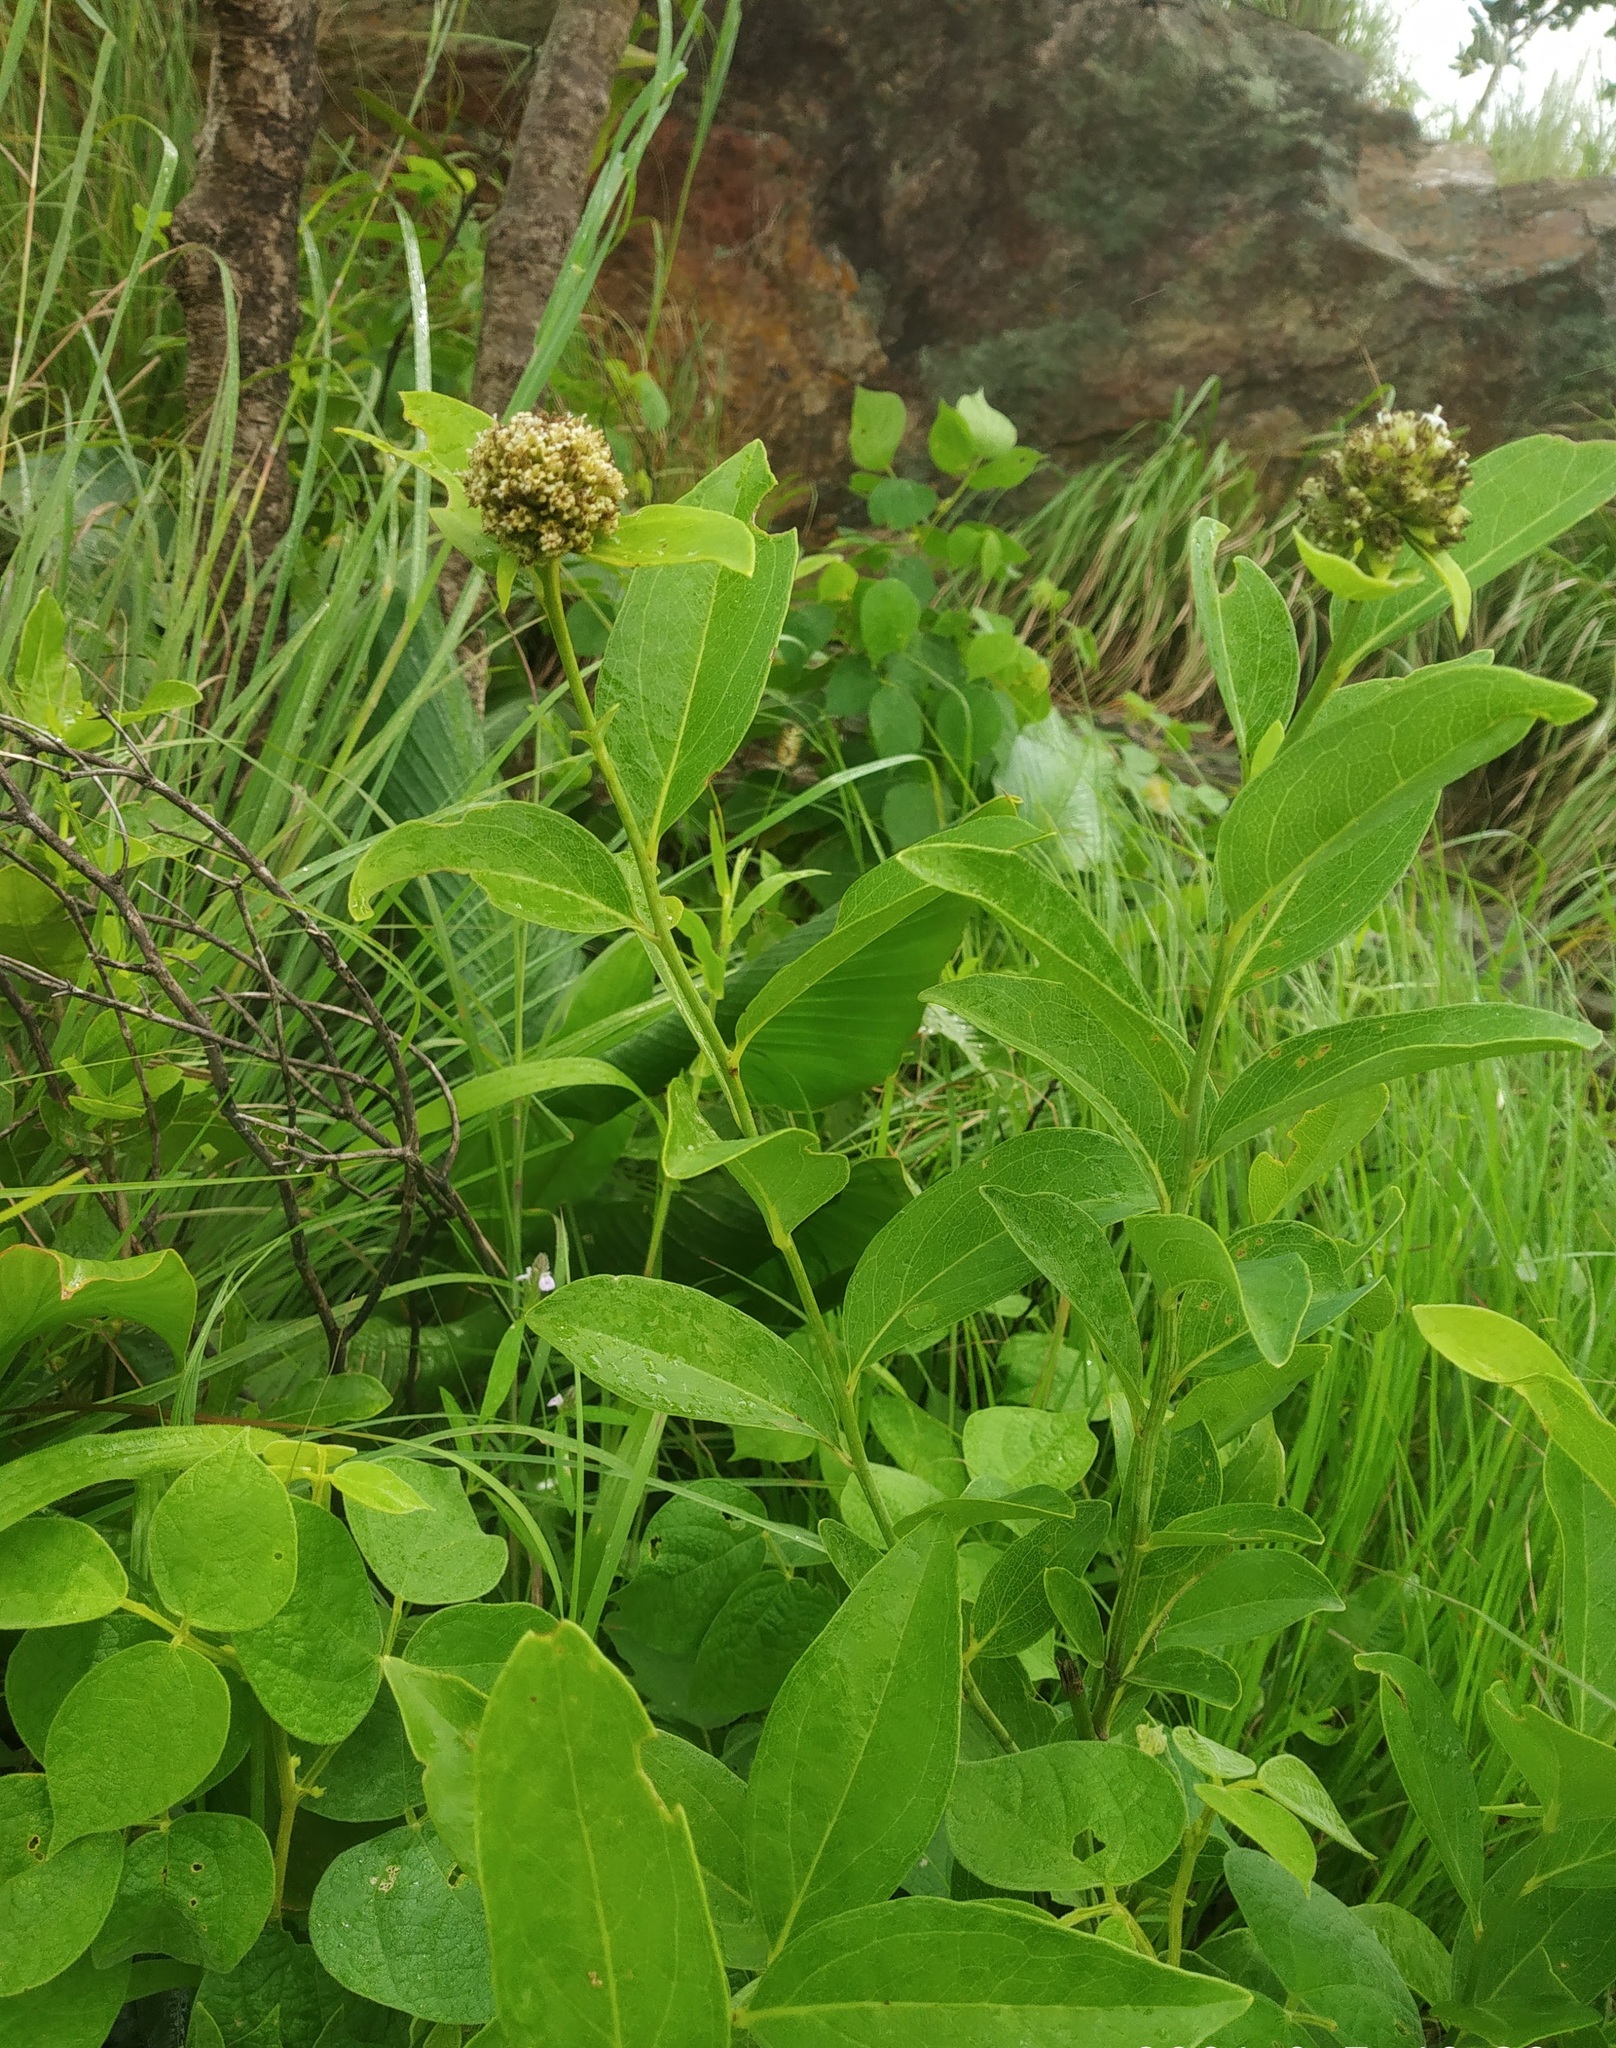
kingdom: Plantae
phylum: Tracheophyta
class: Magnoliopsida
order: Asterales
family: Asteraceae
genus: Leucoblepharis
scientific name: Leucoblepharis subsessilis
